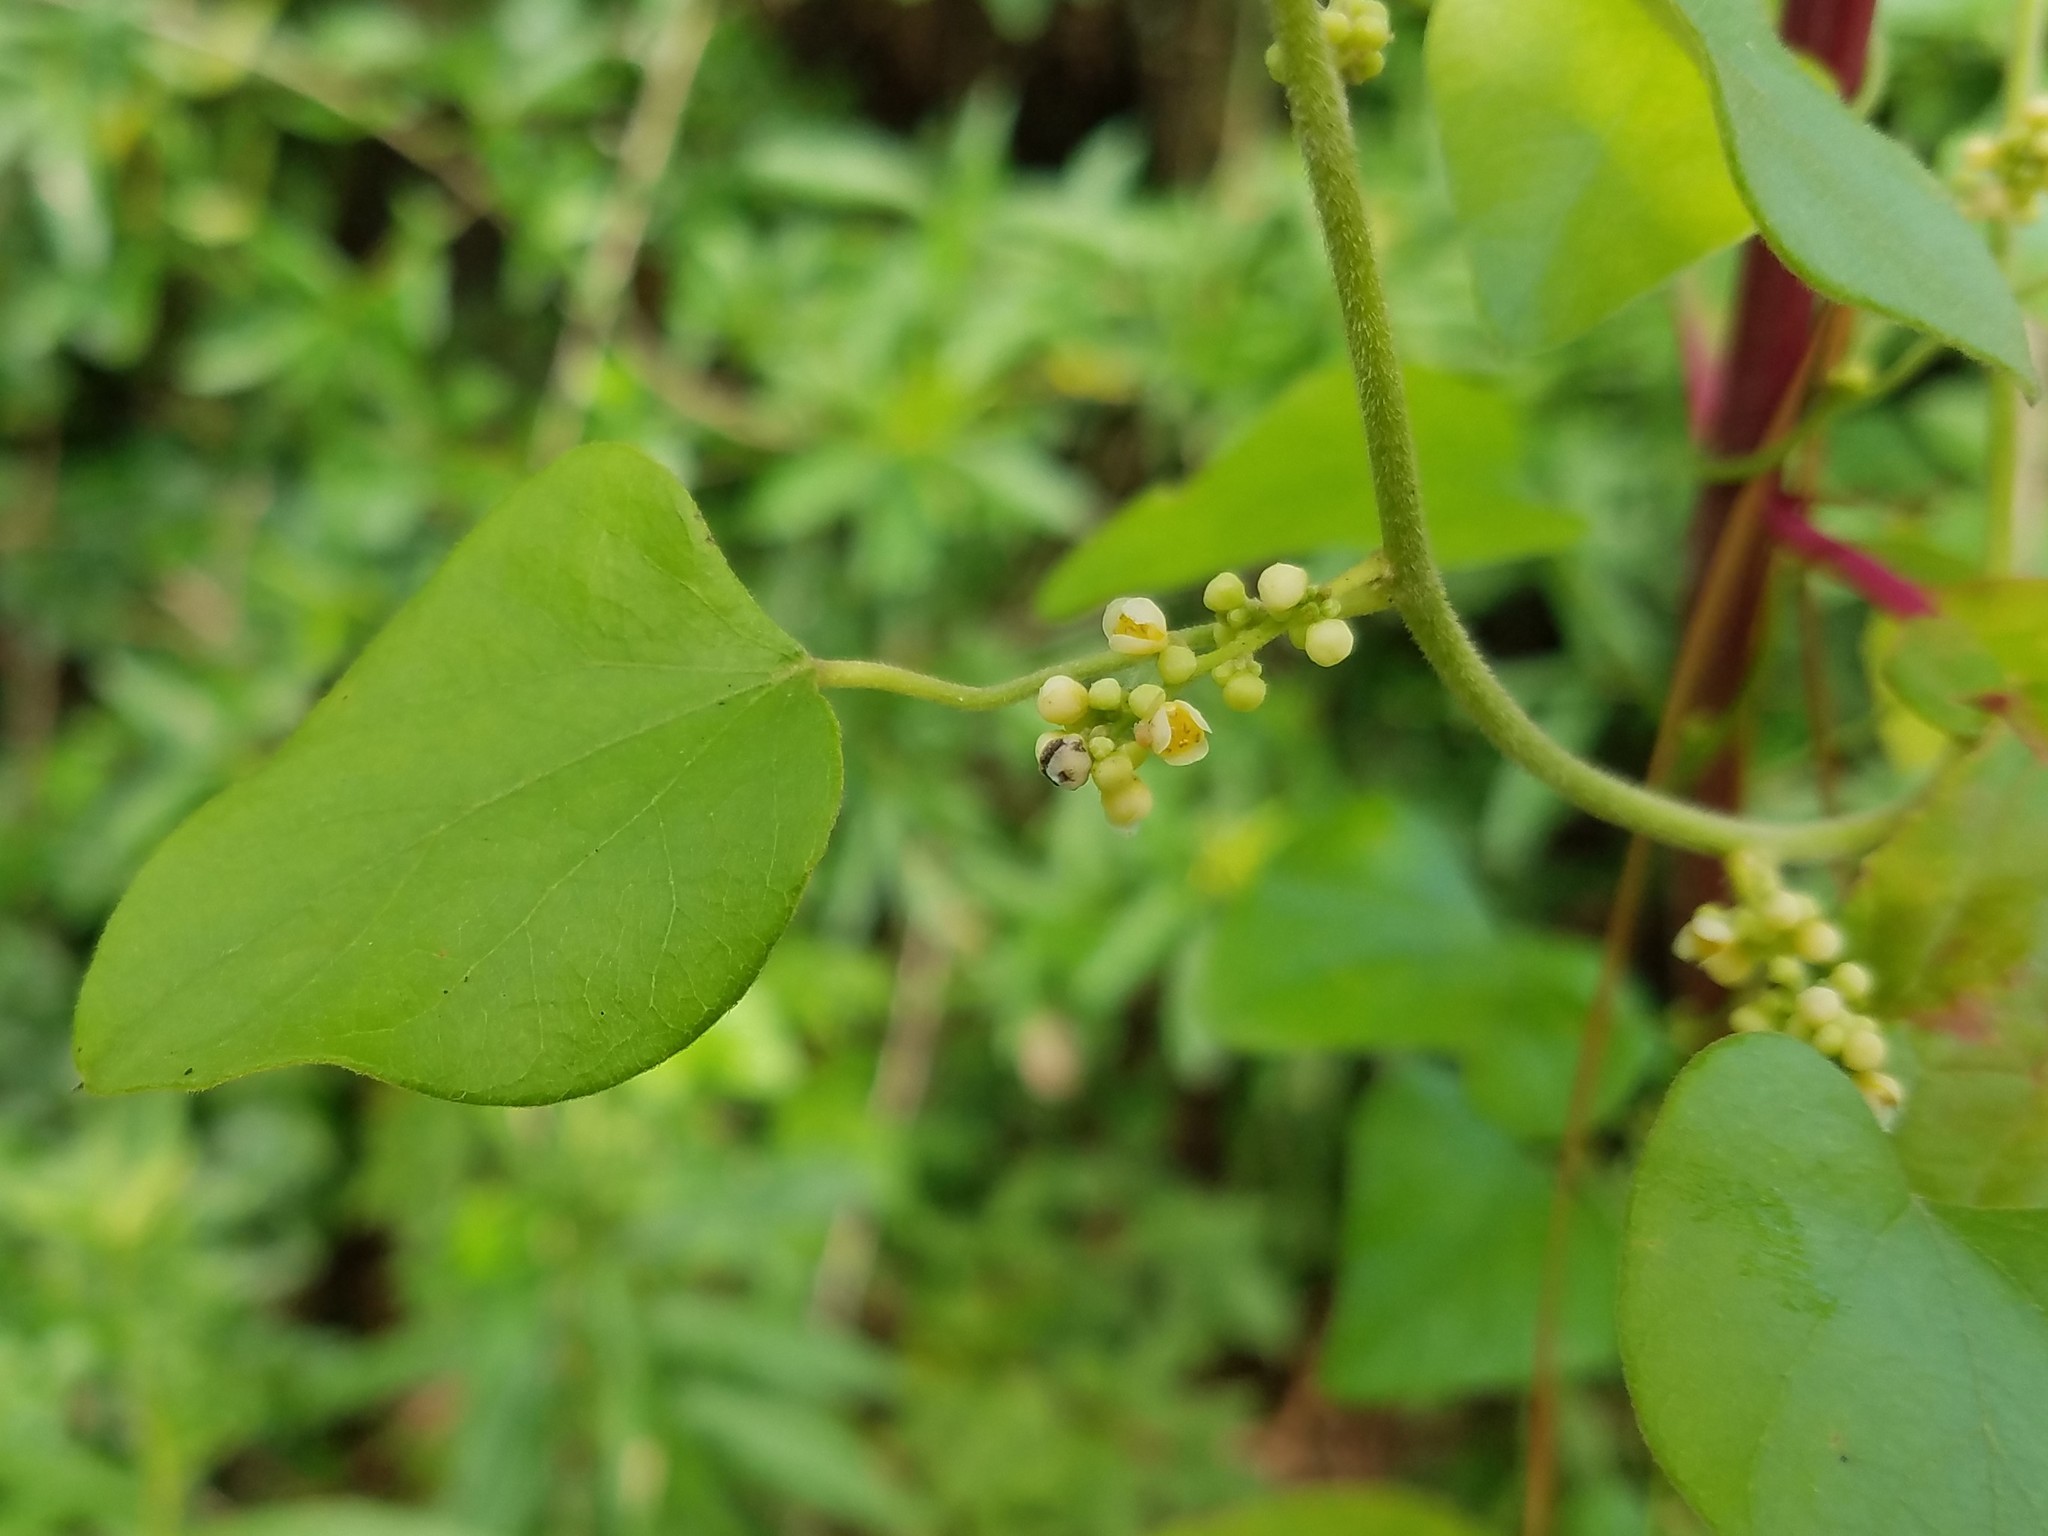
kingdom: Plantae
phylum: Tracheophyta
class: Magnoliopsida
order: Ranunculales
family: Menispermaceae
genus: Cocculus
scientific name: Cocculus carolinus
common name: Carolina moonseed
